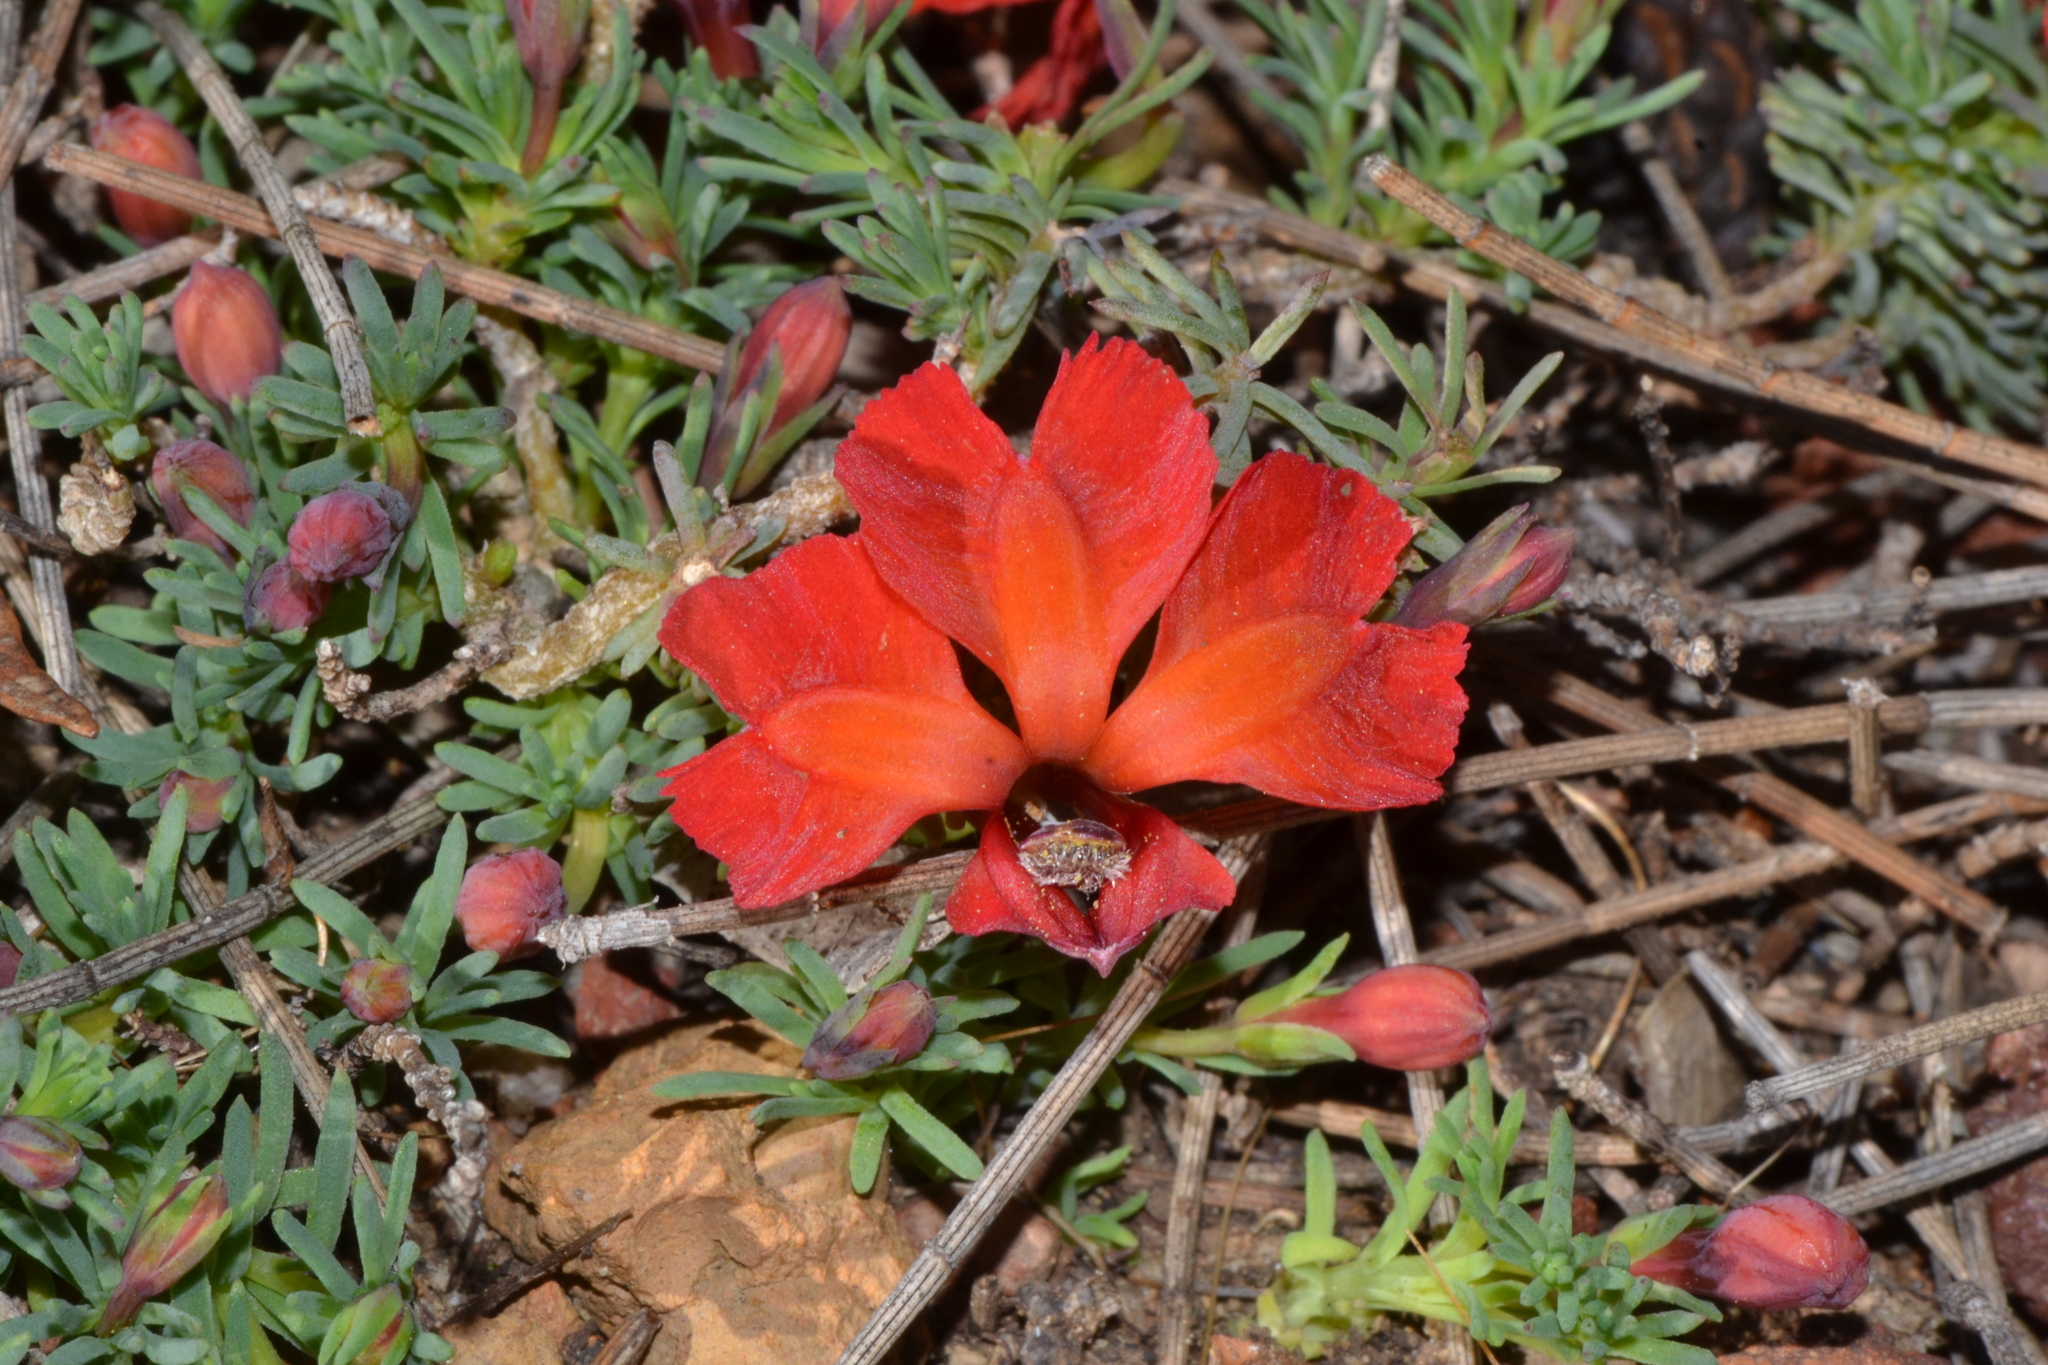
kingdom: Plantae
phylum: Tracheophyta
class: Magnoliopsida
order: Asterales
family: Goodeniaceae
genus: Lechenaultia
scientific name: Lechenaultia formosa
